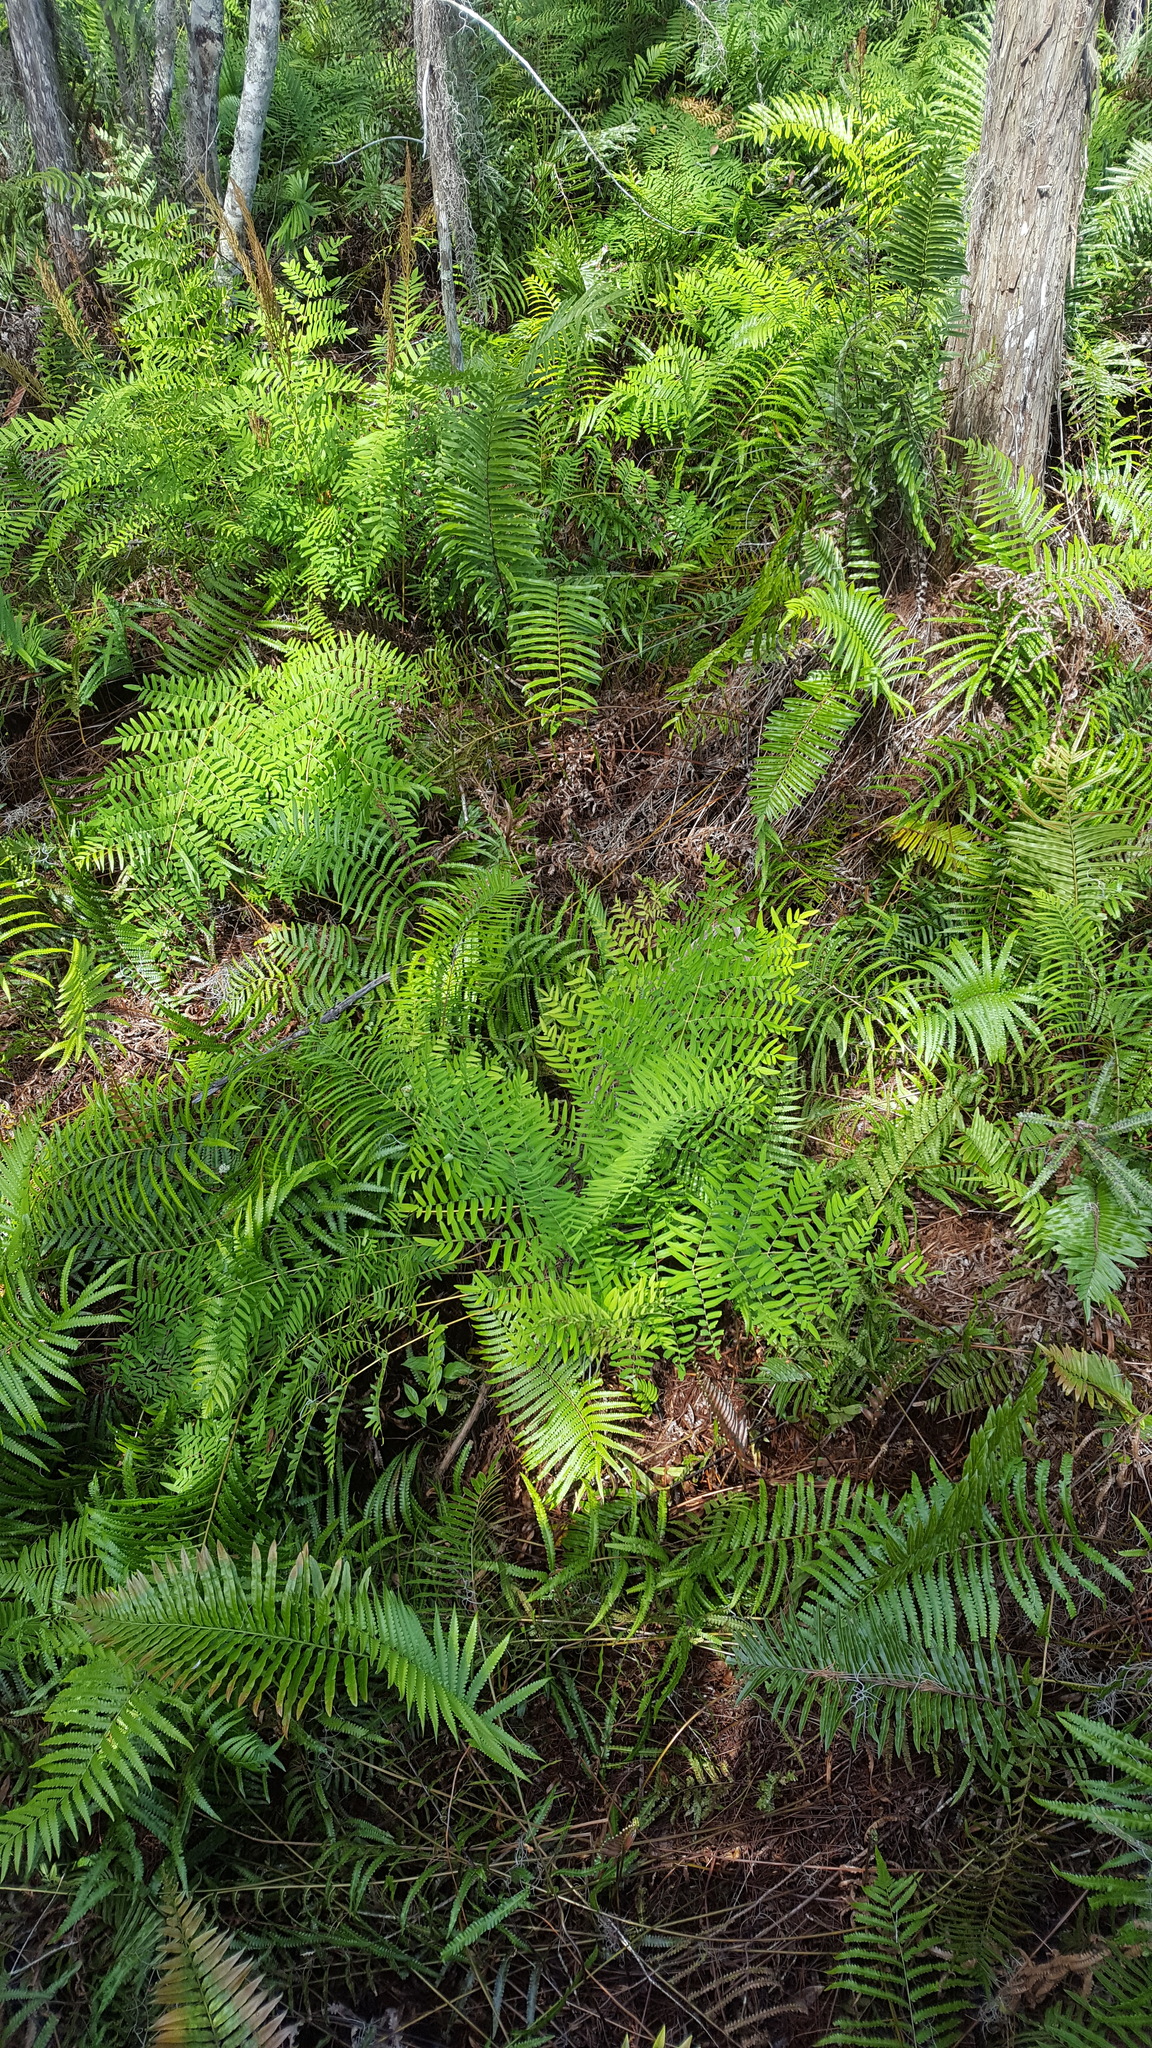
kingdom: Plantae
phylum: Tracheophyta
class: Polypodiopsida
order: Osmundales
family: Osmundaceae
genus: Osmunda
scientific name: Osmunda spectabilis
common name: American royal fern
